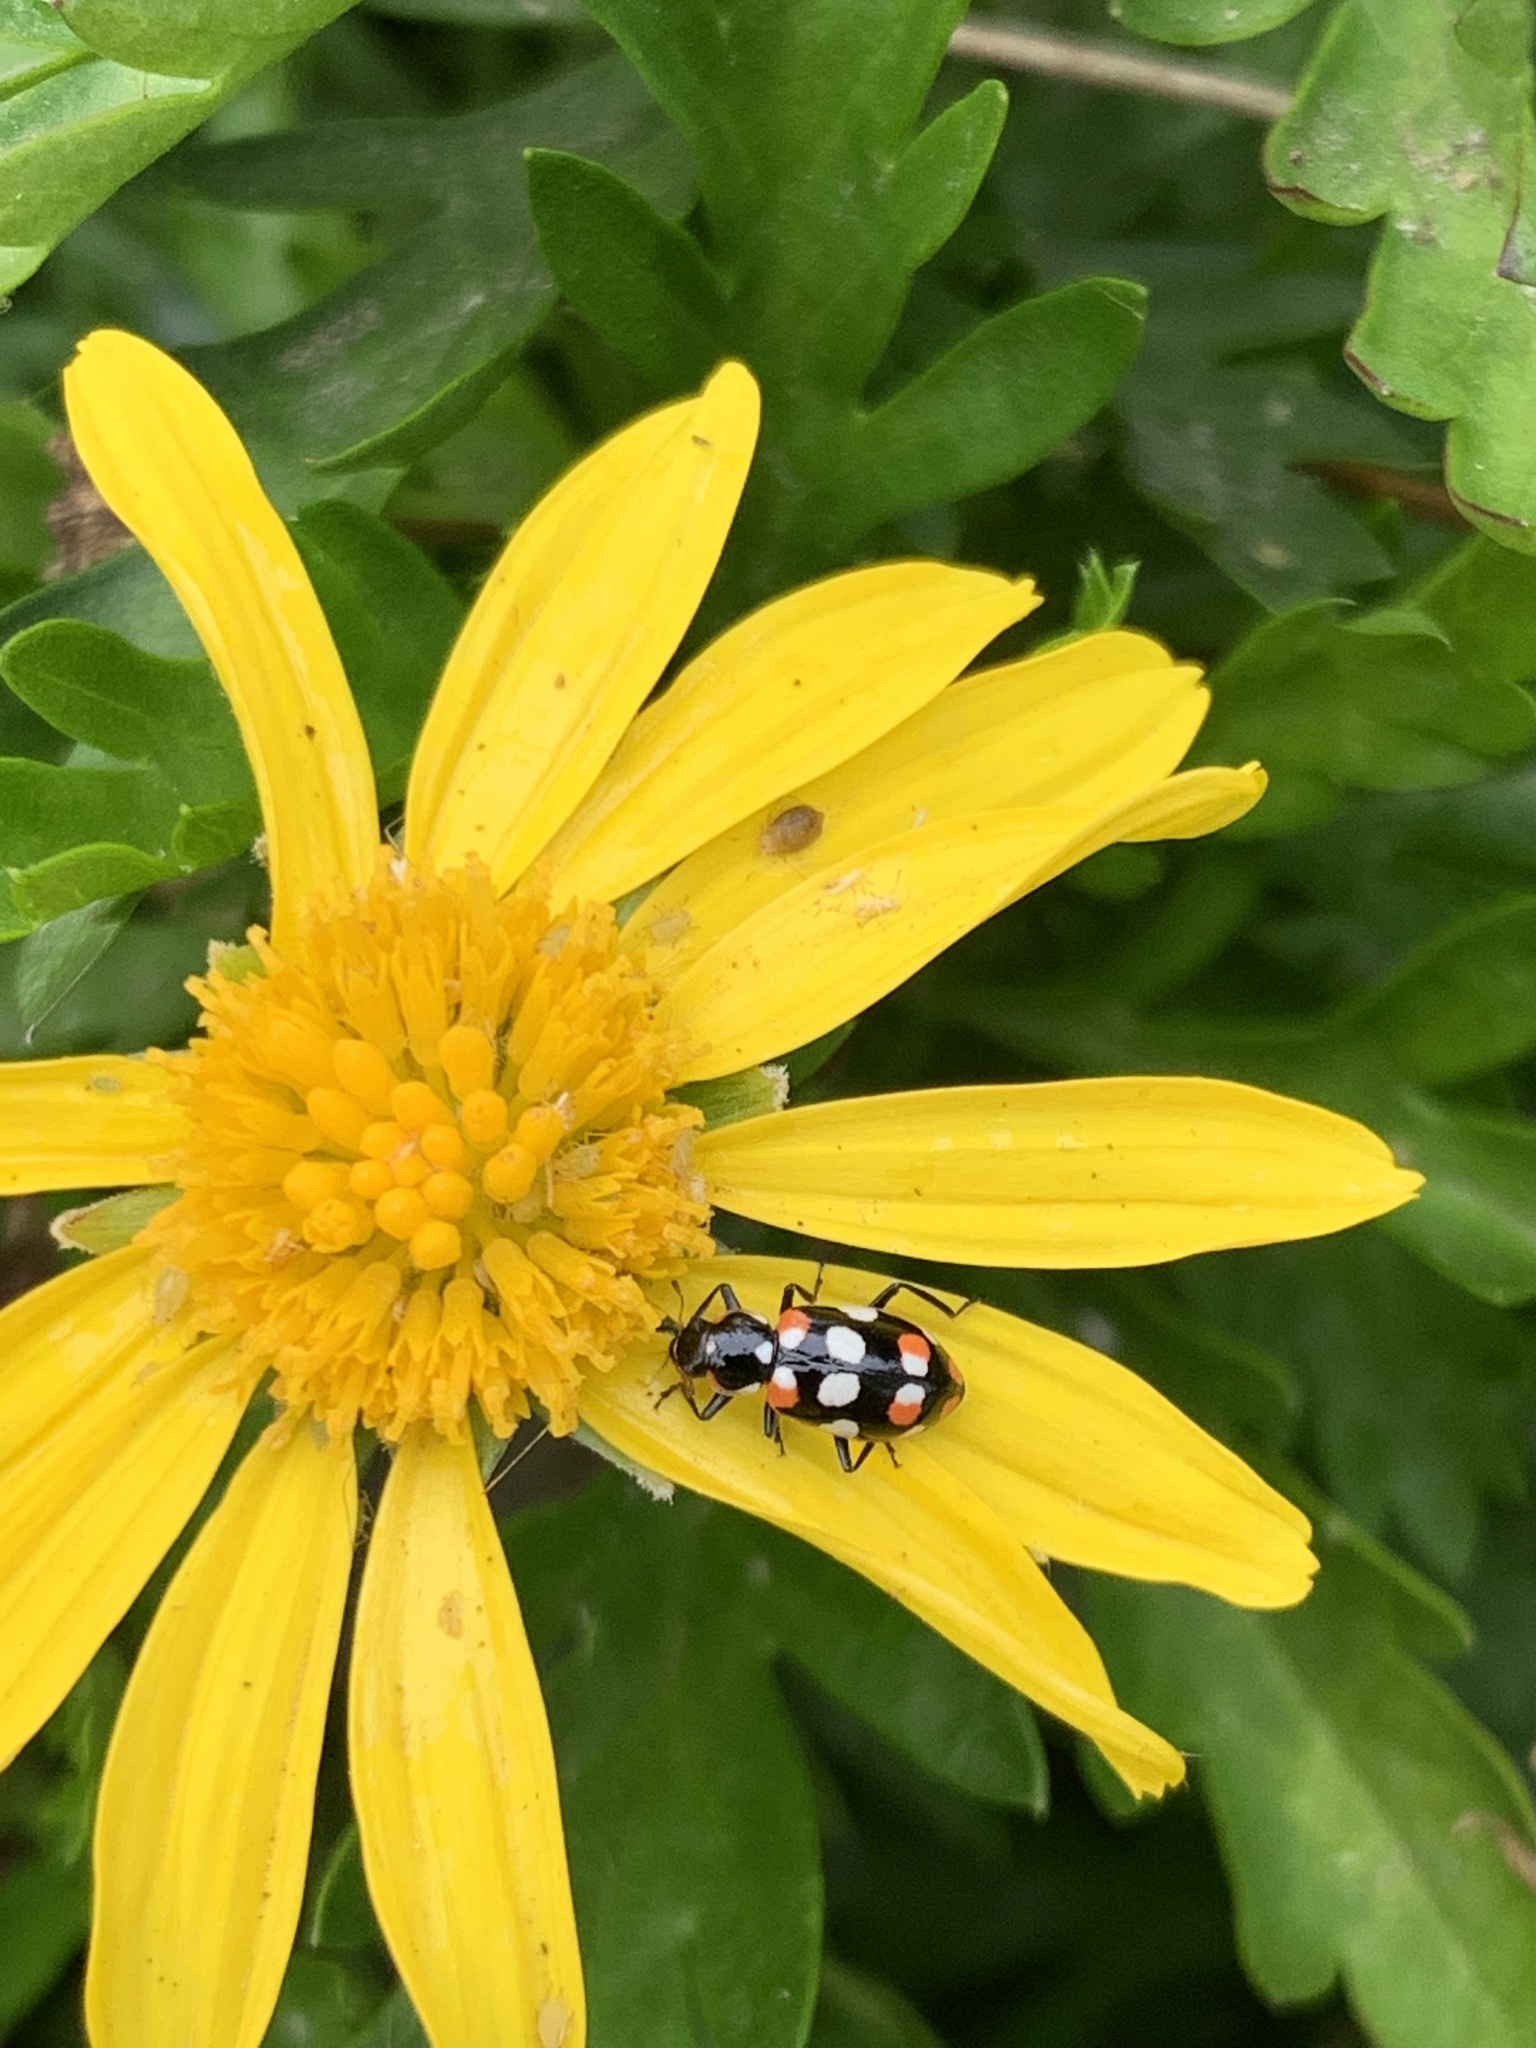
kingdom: Animalia
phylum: Arthropoda
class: Insecta
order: Coleoptera
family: Coccinellidae
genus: Eriopis
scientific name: Eriopis connexa
